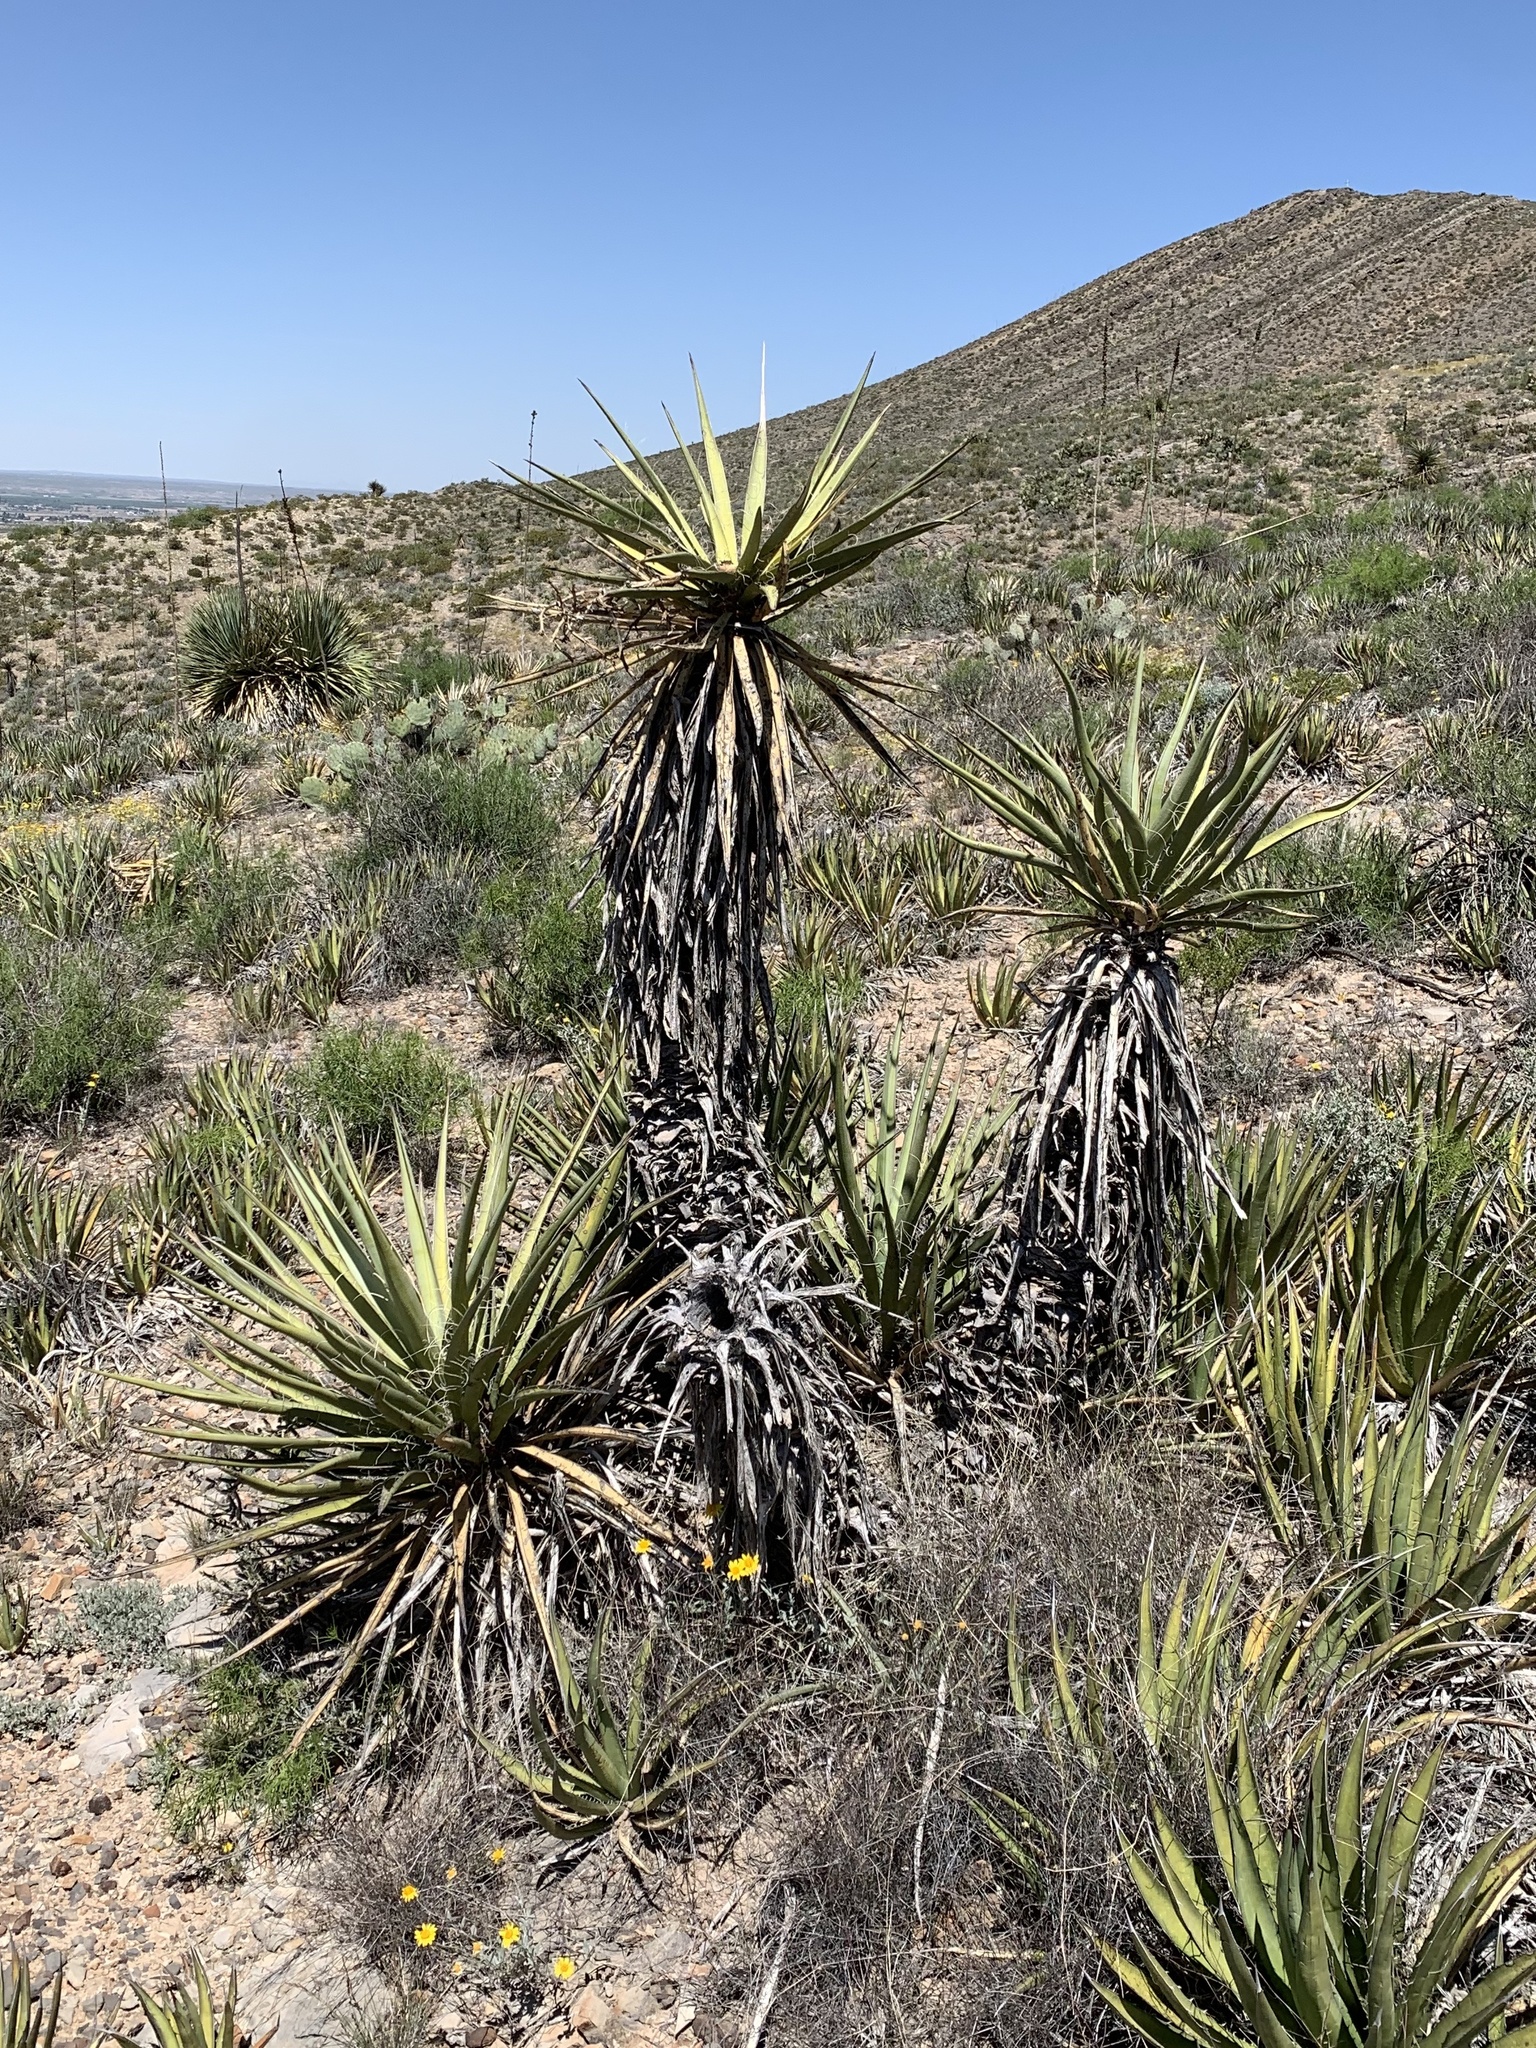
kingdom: Plantae
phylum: Tracheophyta
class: Liliopsida
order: Asparagales
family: Asparagaceae
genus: Yucca
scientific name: Yucca treculiana
